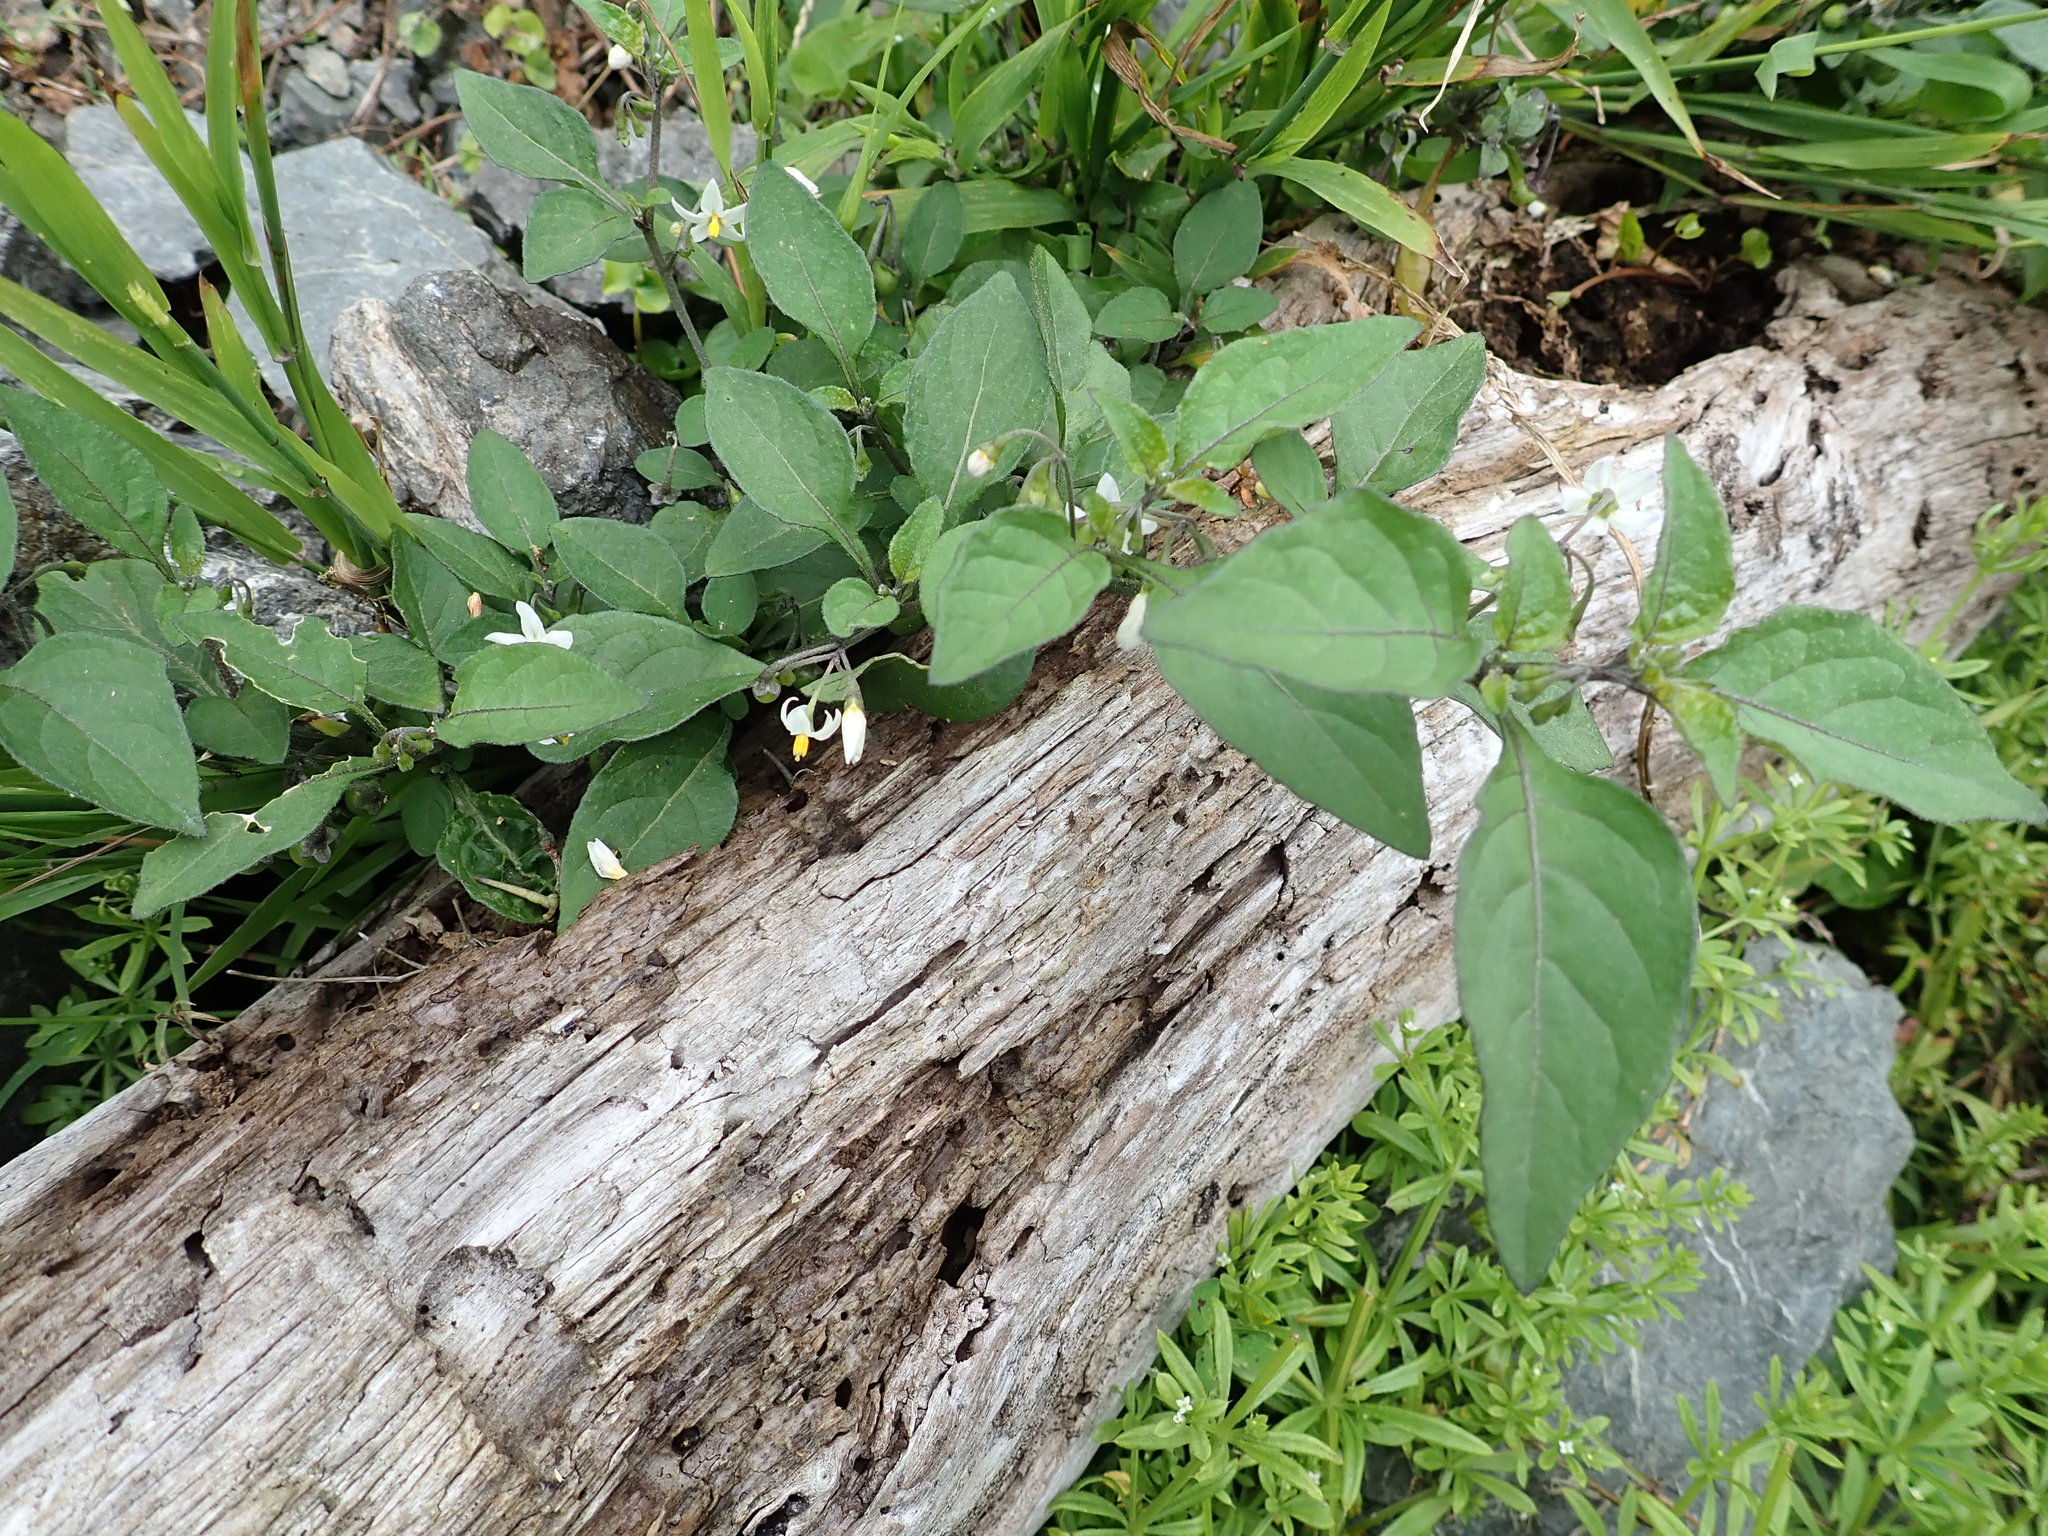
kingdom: Plantae
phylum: Tracheophyta
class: Magnoliopsida
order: Solanales
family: Solanaceae
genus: Solanum
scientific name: Solanum nigrum
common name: Black nightshade
